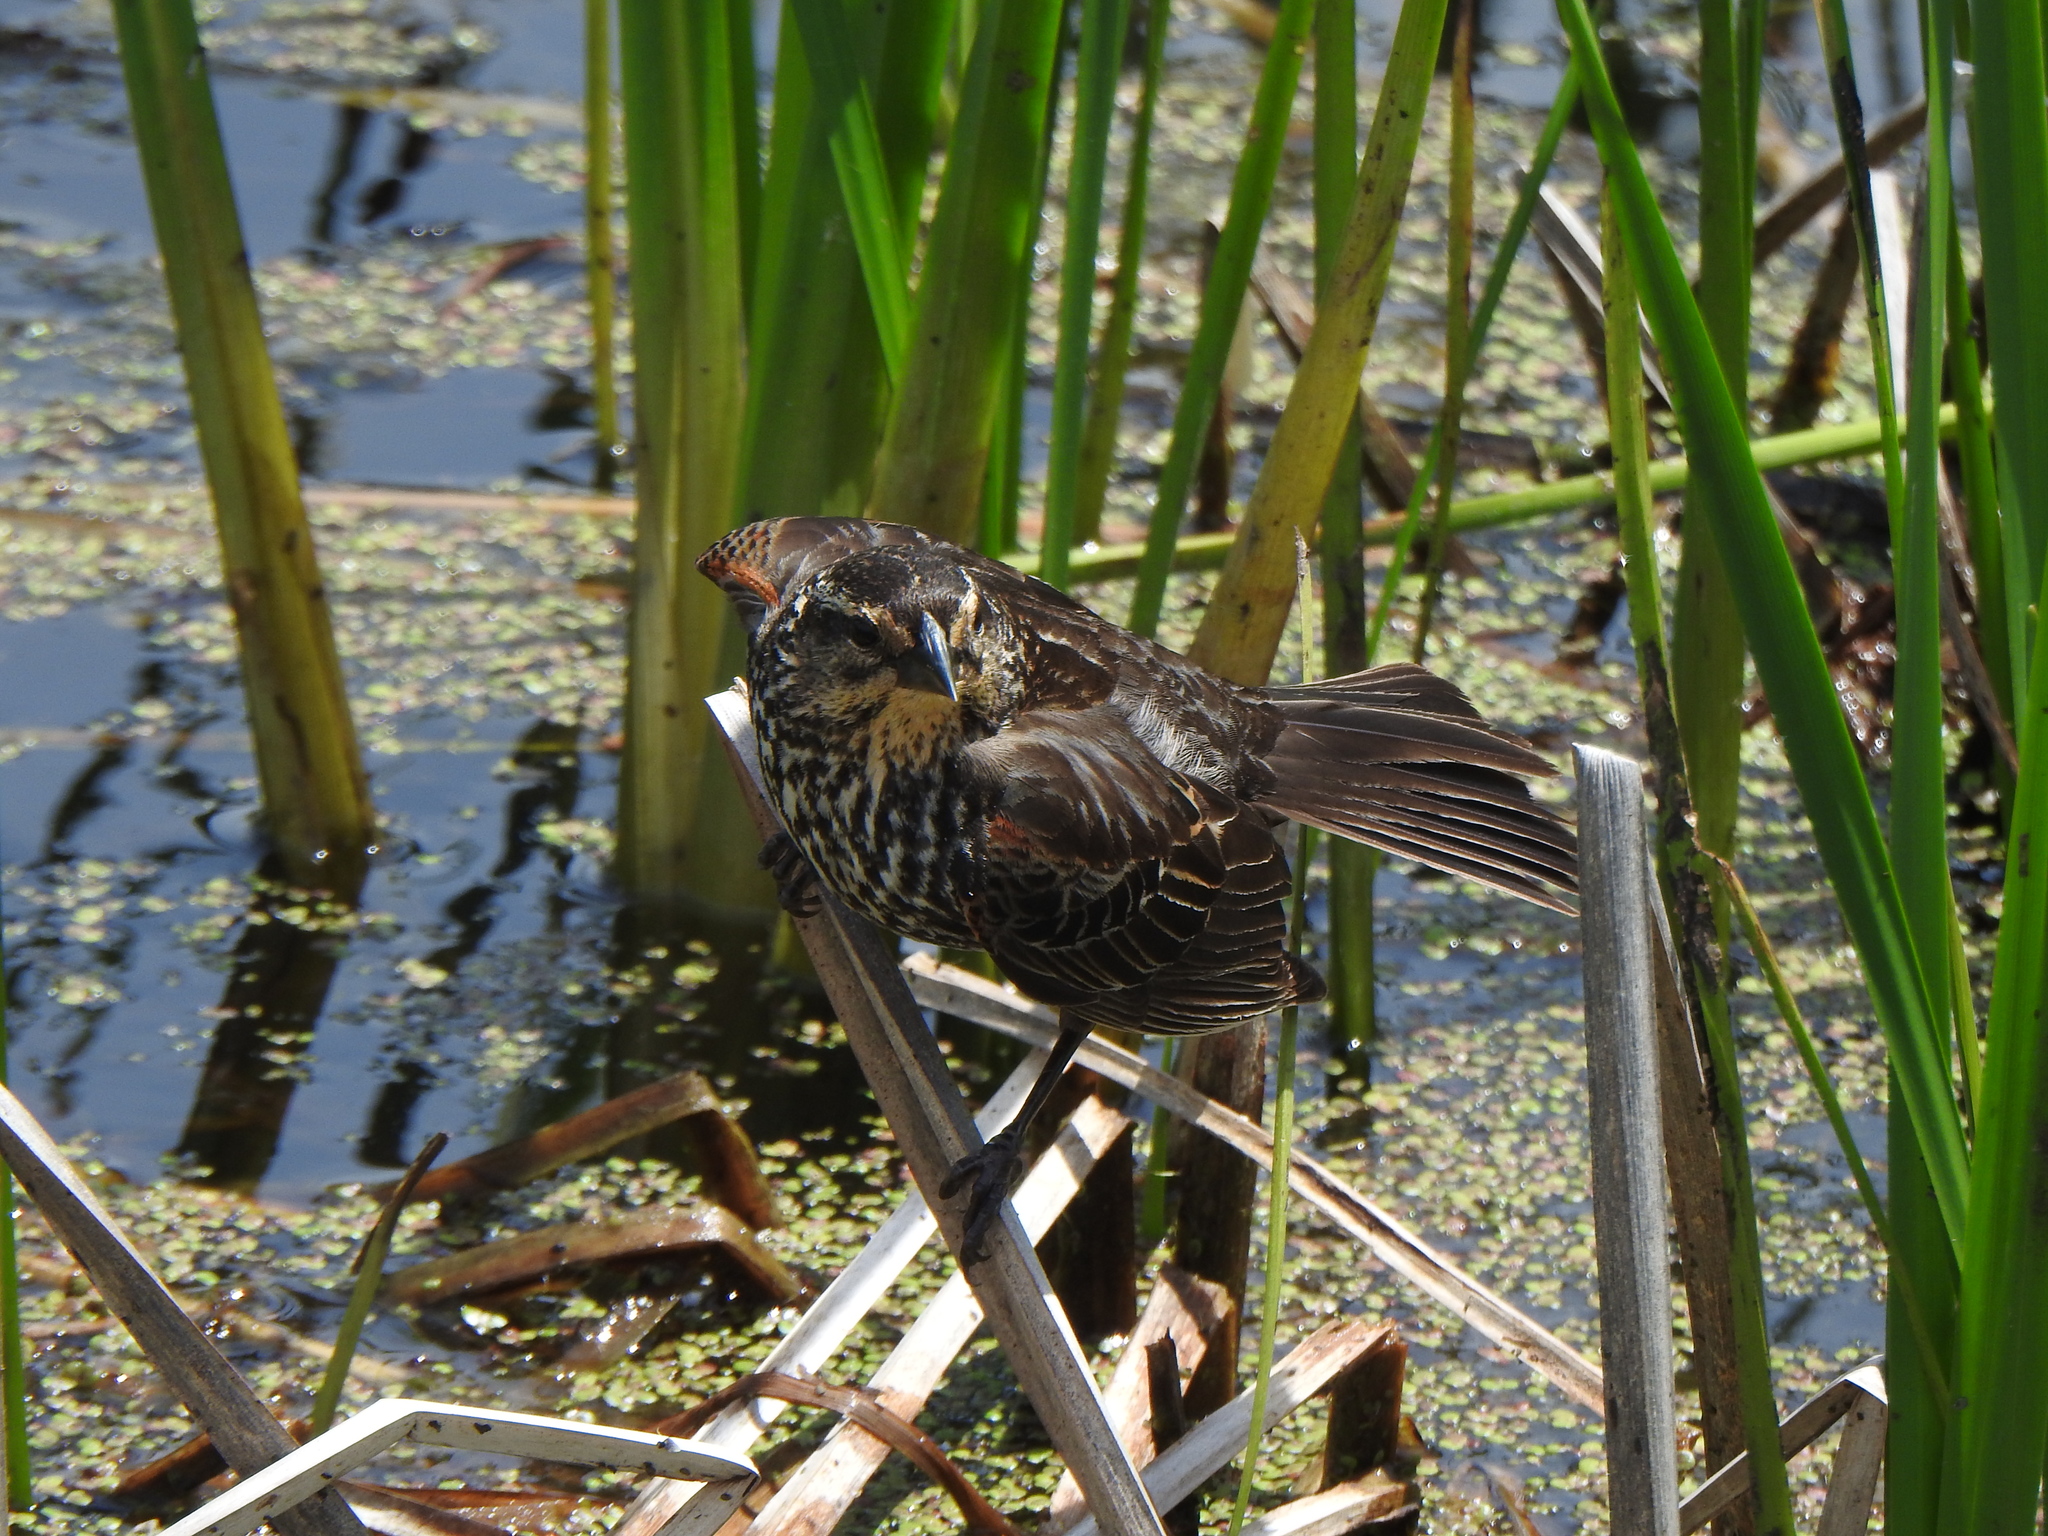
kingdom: Animalia
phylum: Chordata
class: Aves
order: Passeriformes
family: Icteridae
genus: Agelaius
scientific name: Agelaius phoeniceus
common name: Red-winged blackbird
